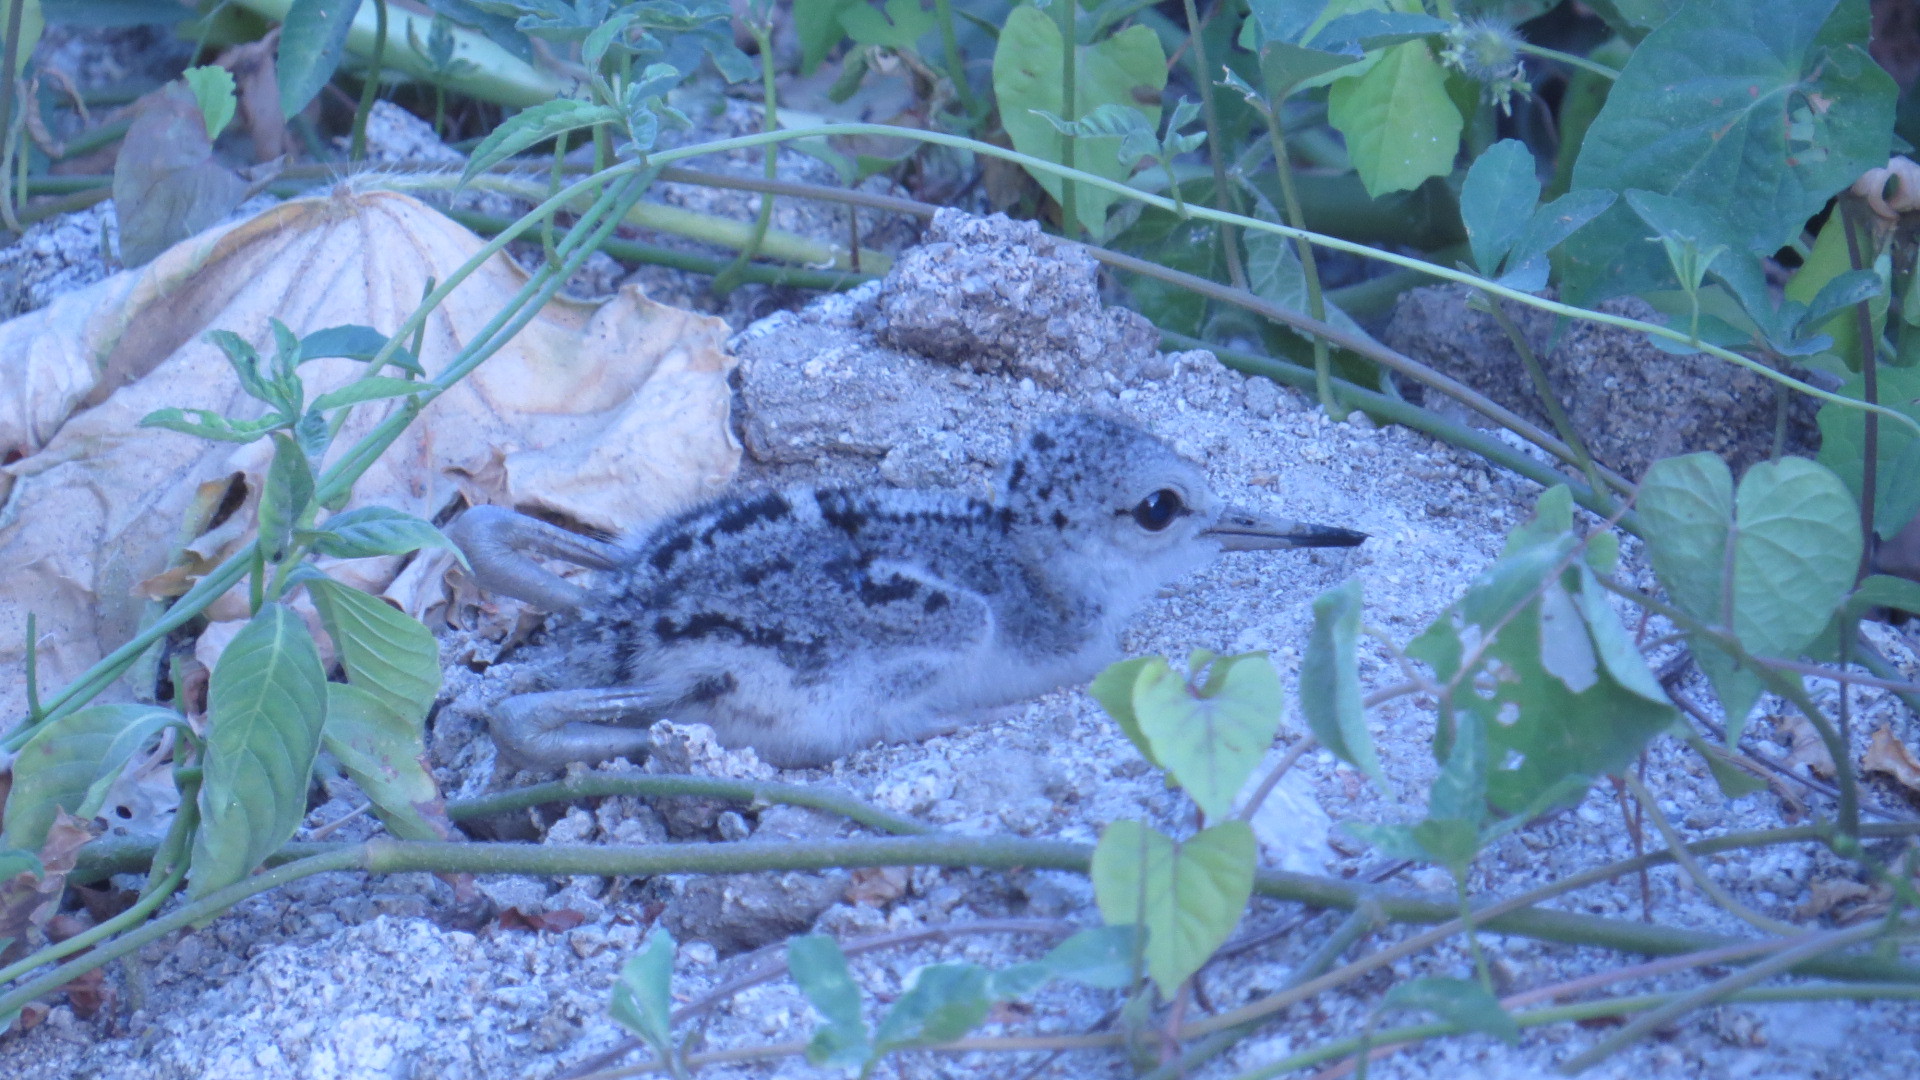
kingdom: Animalia
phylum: Chordata
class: Aves
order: Charadriiformes
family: Recurvirostridae
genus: Himantopus
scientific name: Himantopus mexicanus
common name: Black-necked stilt
